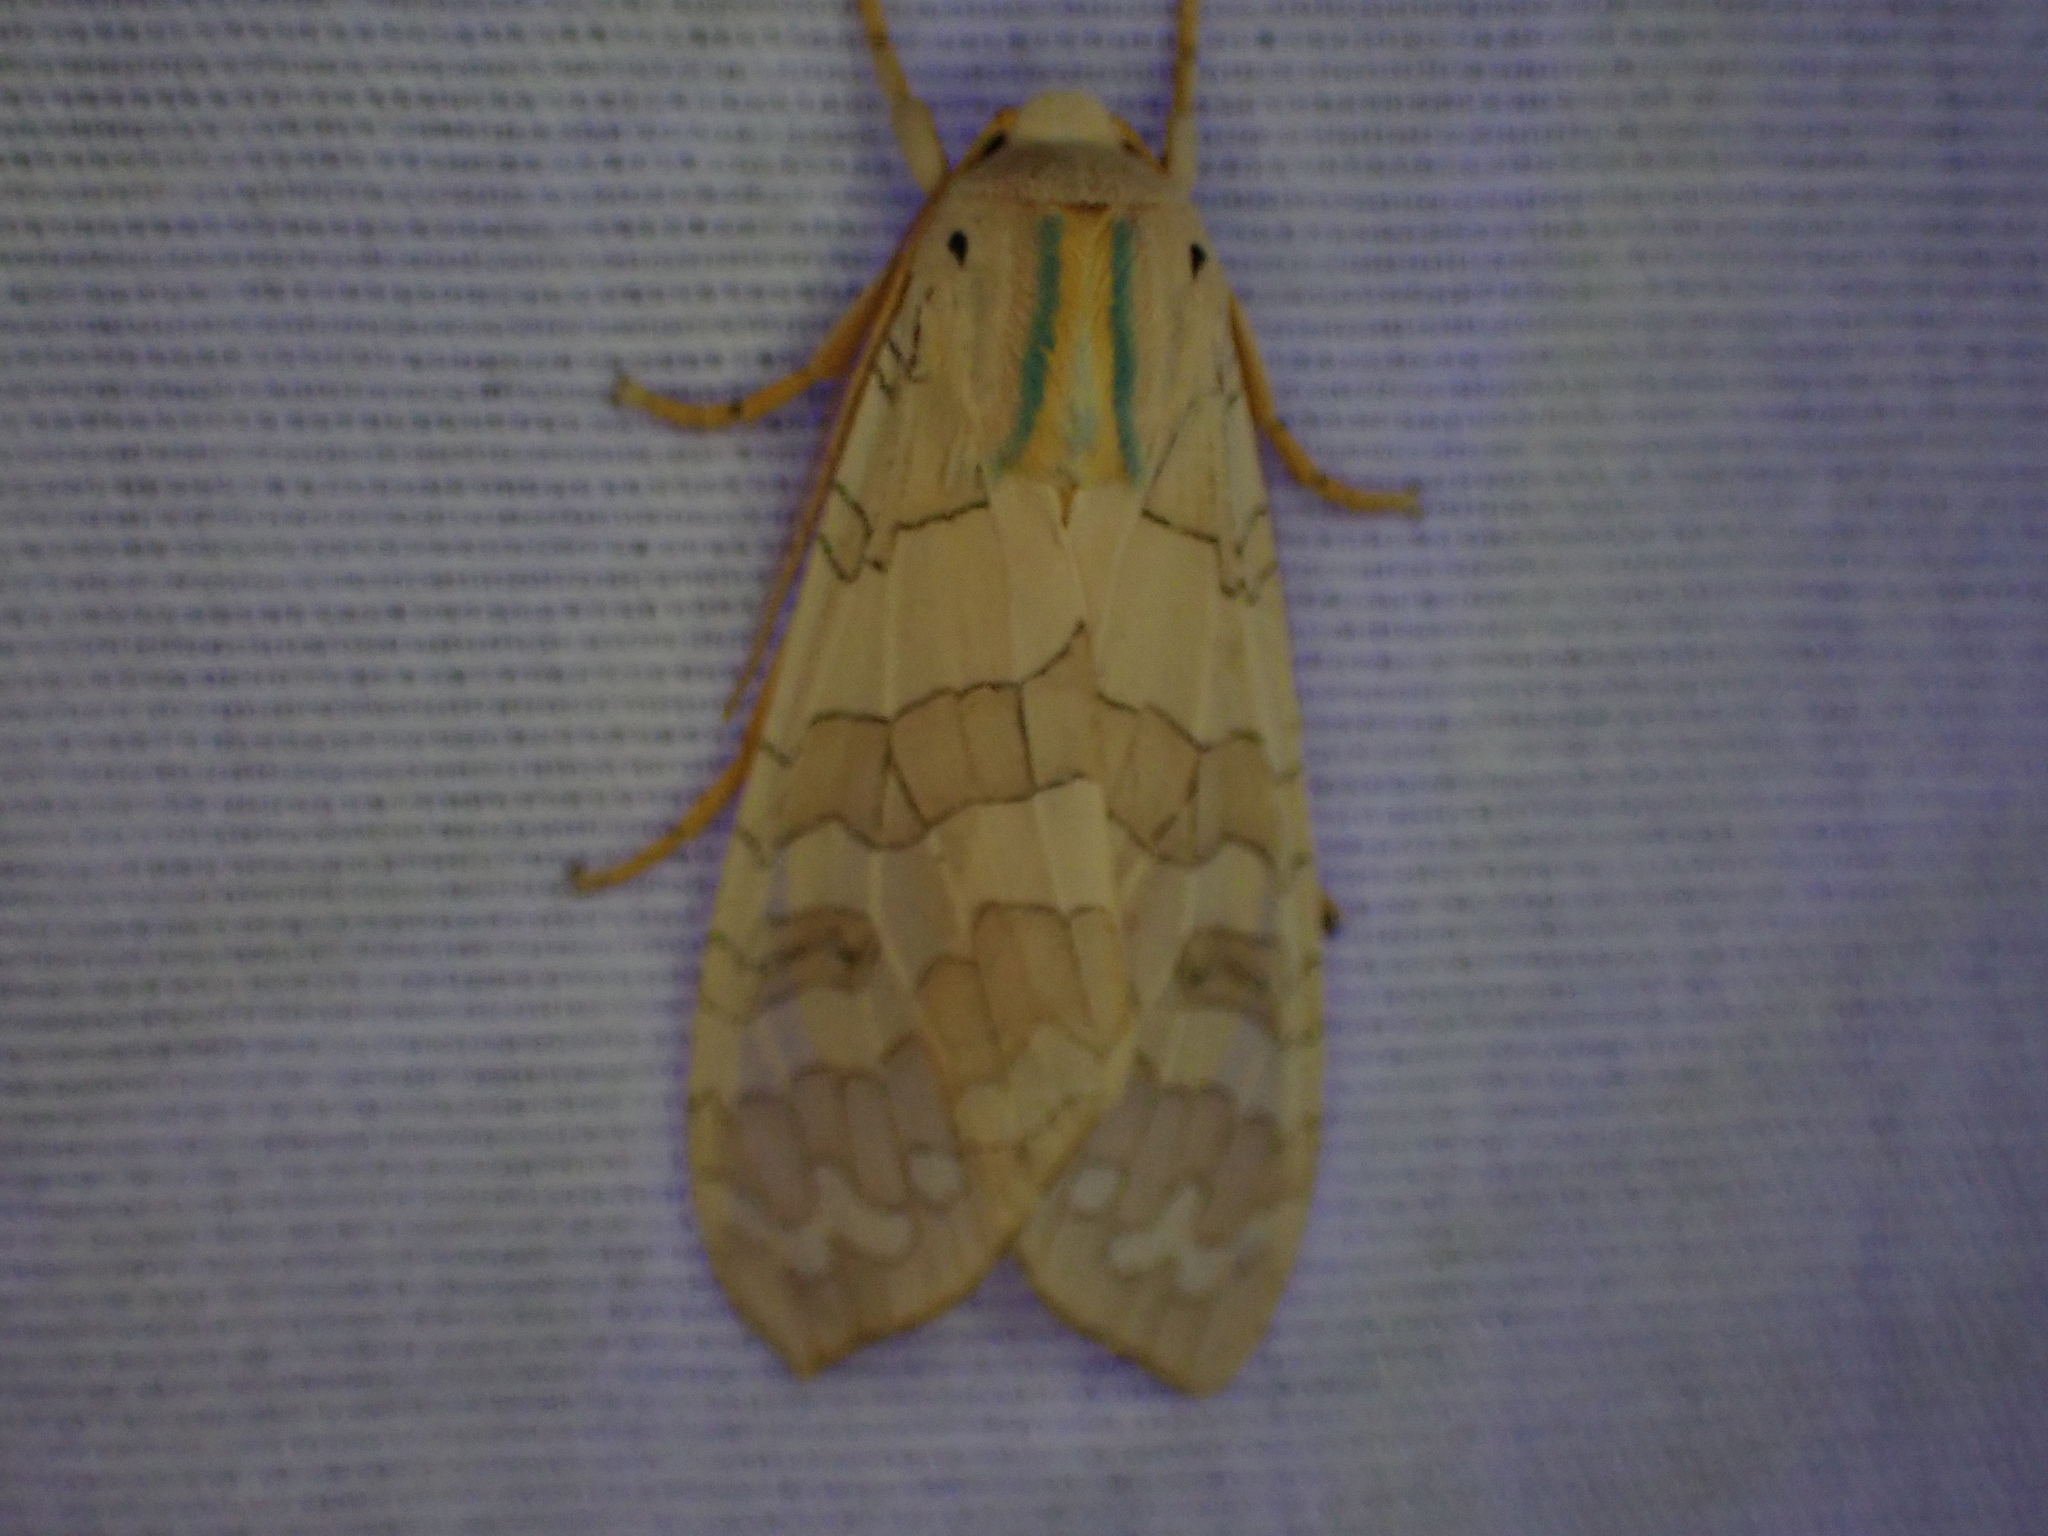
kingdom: Animalia
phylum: Arthropoda
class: Insecta
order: Lepidoptera
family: Erebidae
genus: Halysidota
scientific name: Halysidota
